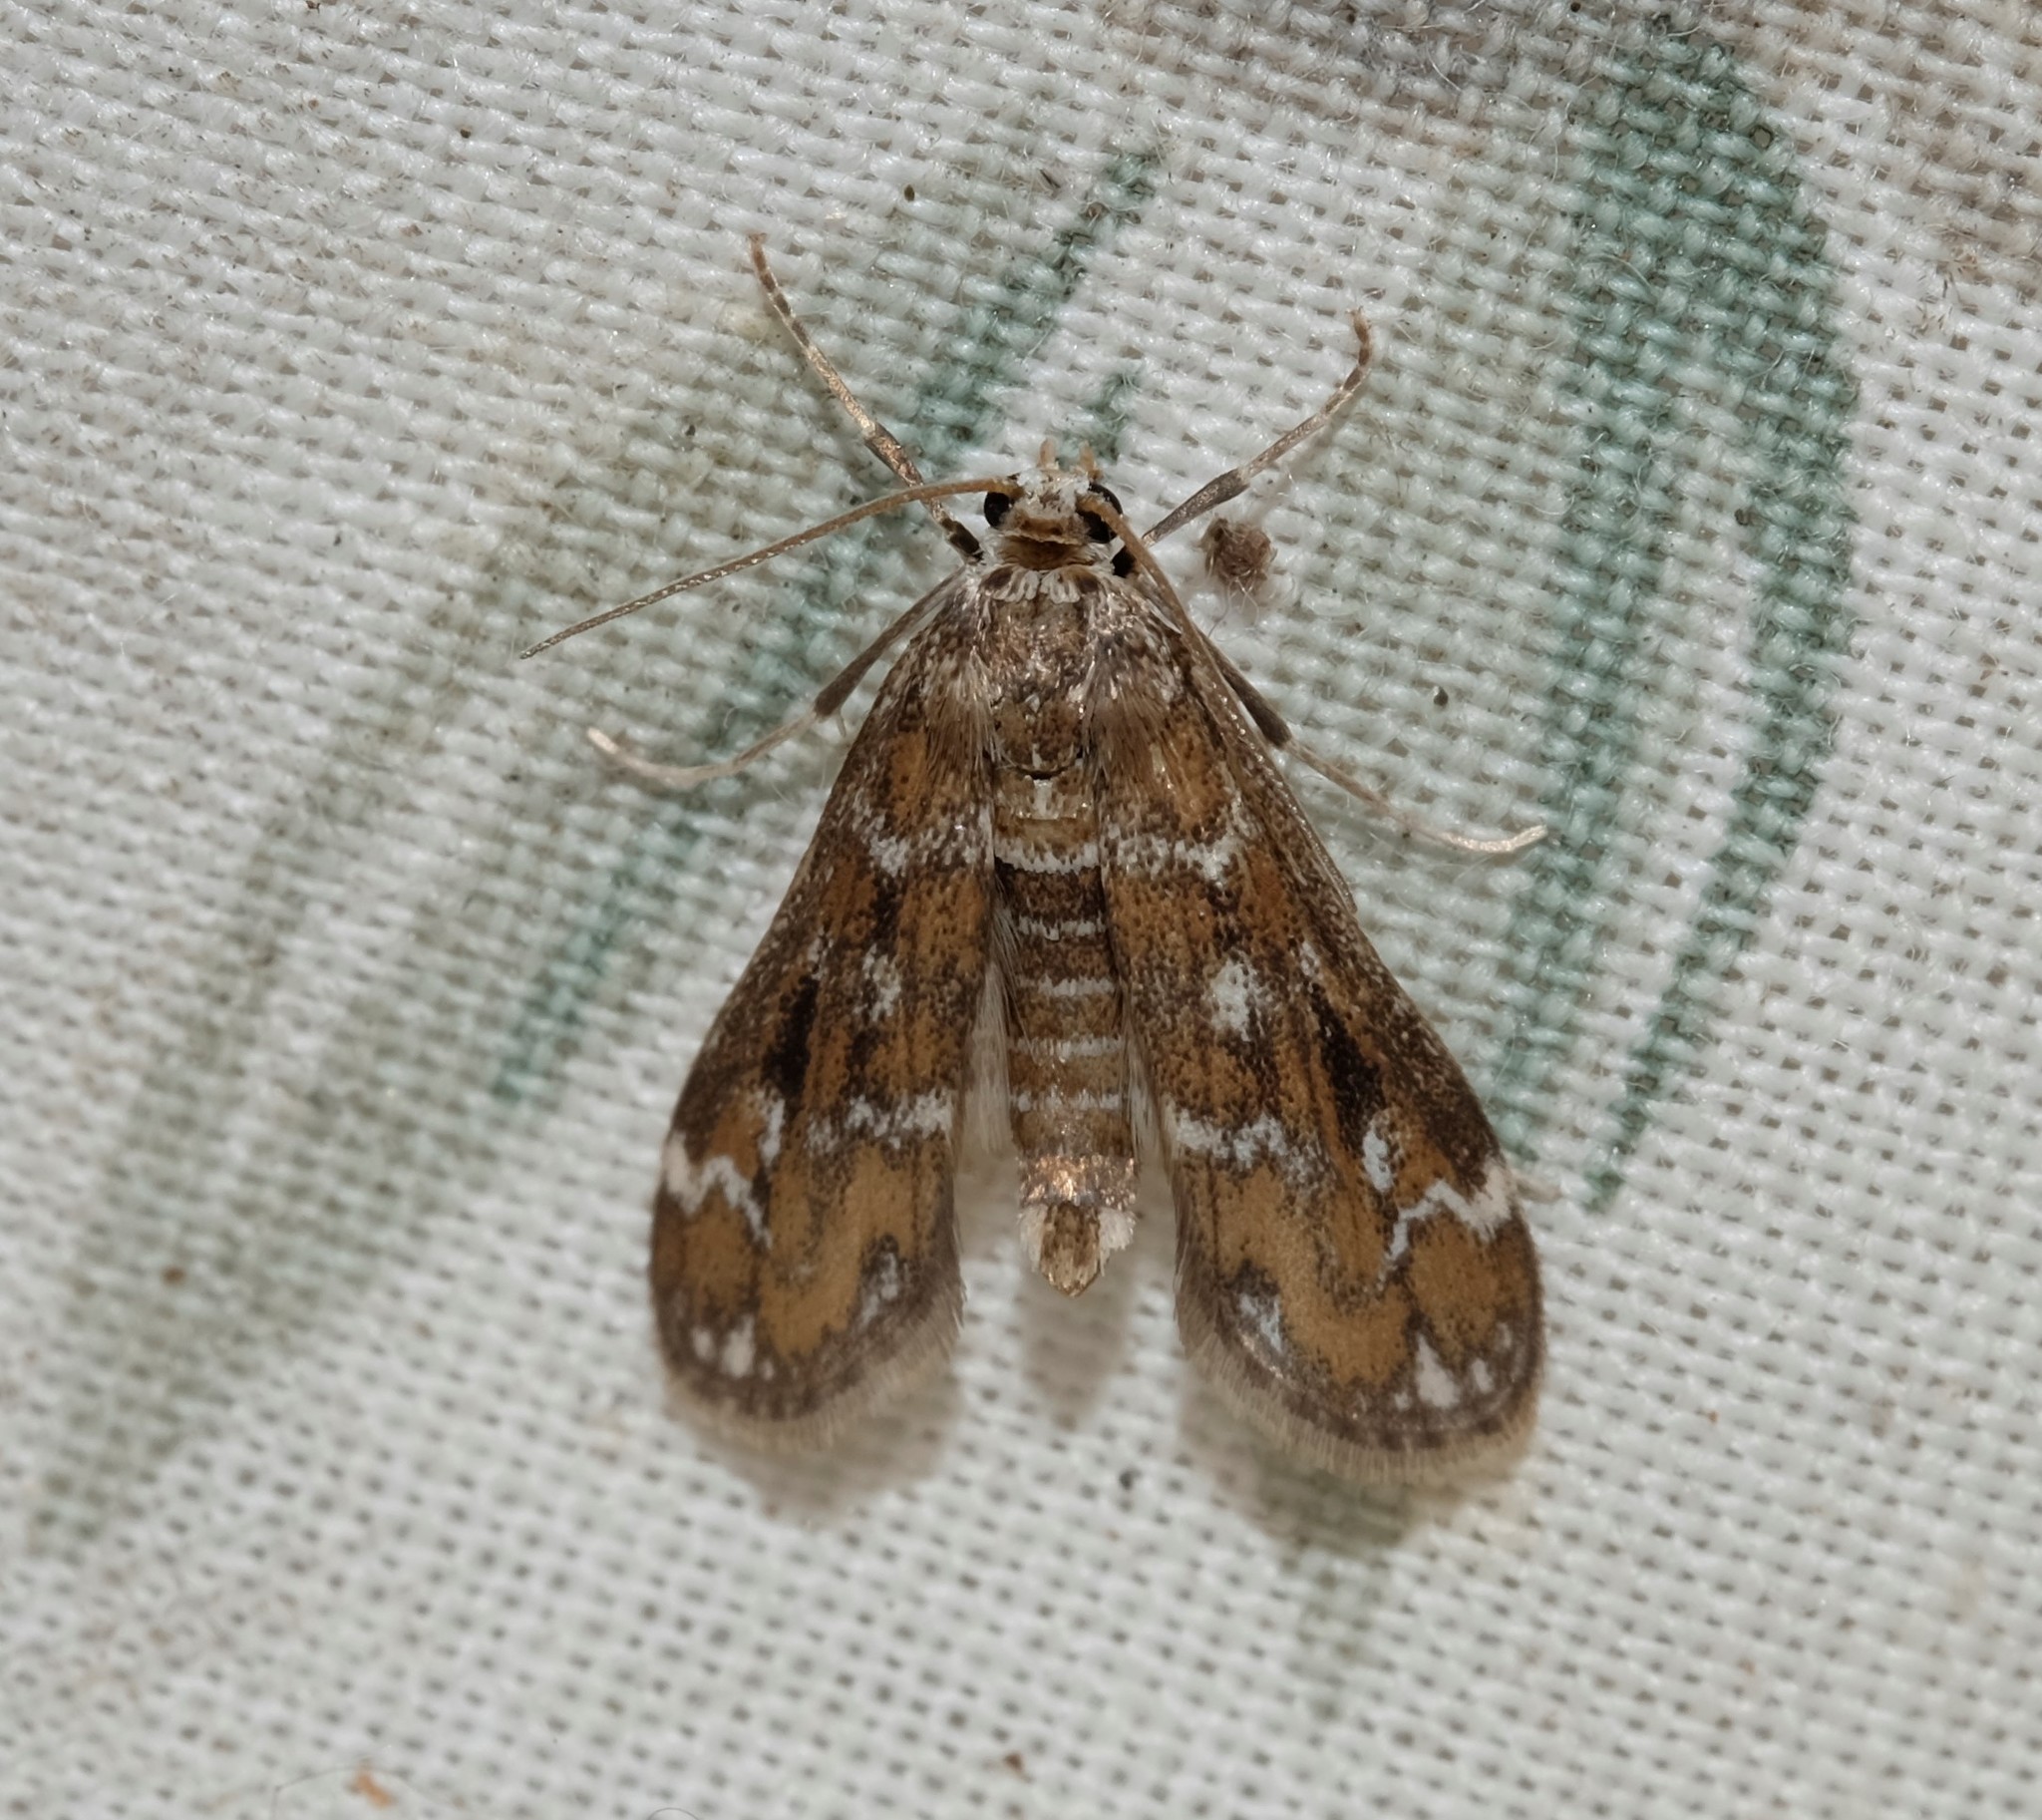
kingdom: Animalia
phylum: Arthropoda
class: Insecta
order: Lepidoptera
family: Crambidae
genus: Hygraula
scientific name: Hygraula nitens
